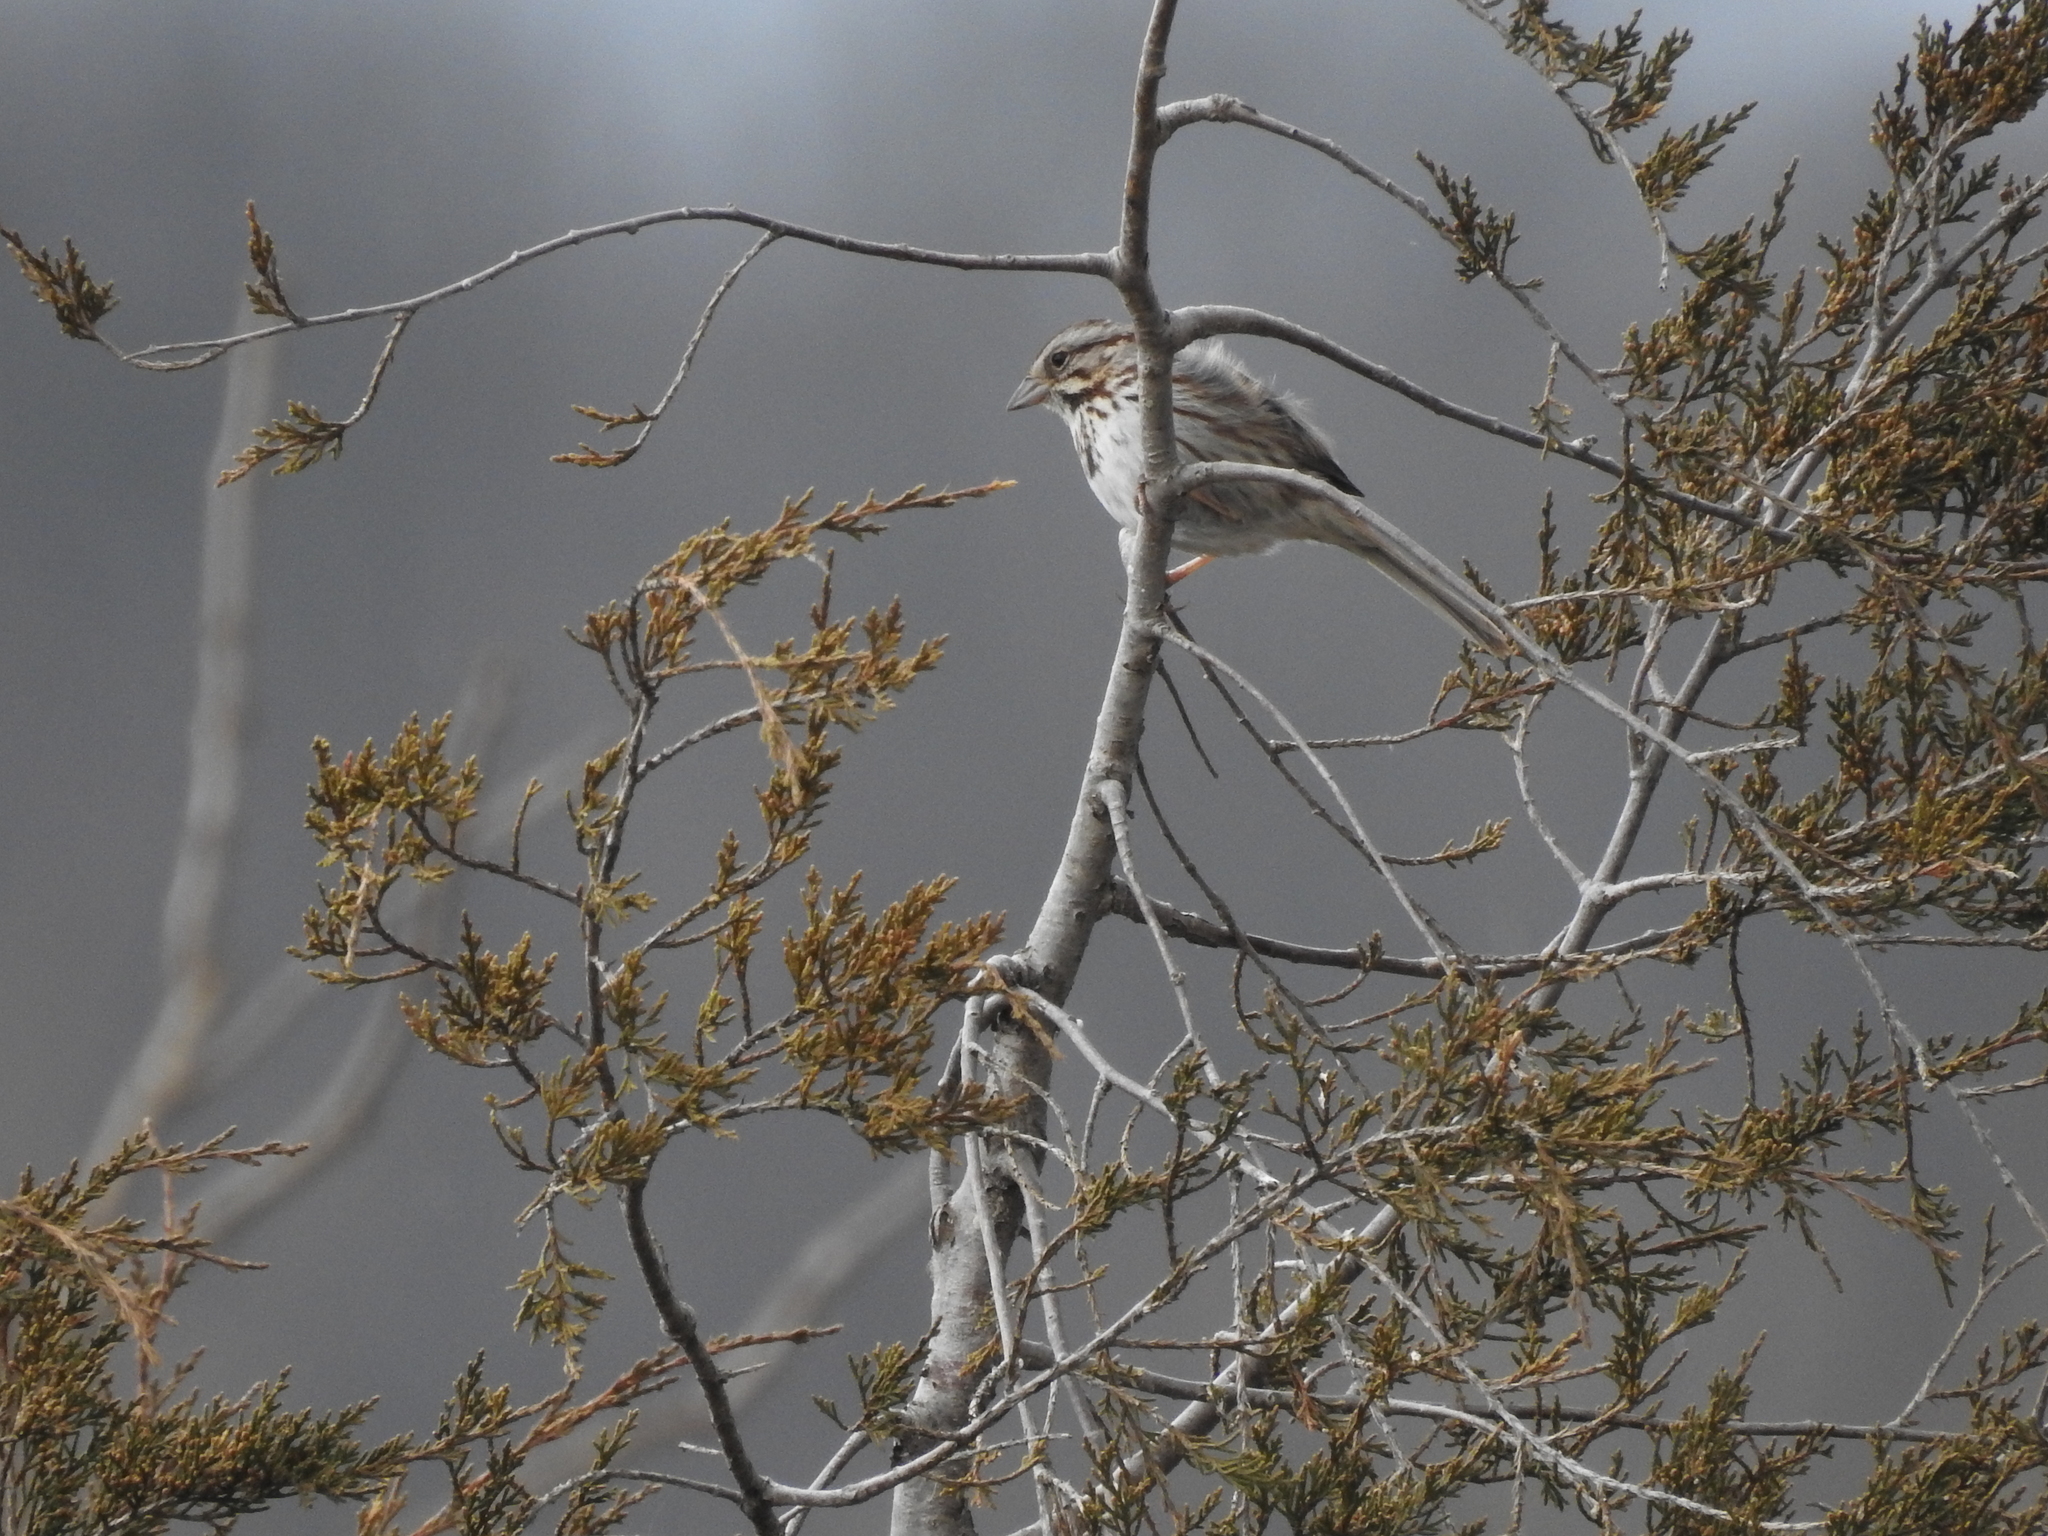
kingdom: Animalia
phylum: Chordata
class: Aves
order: Passeriformes
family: Passerellidae
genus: Melospiza
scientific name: Melospiza melodia
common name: Song sparrow
